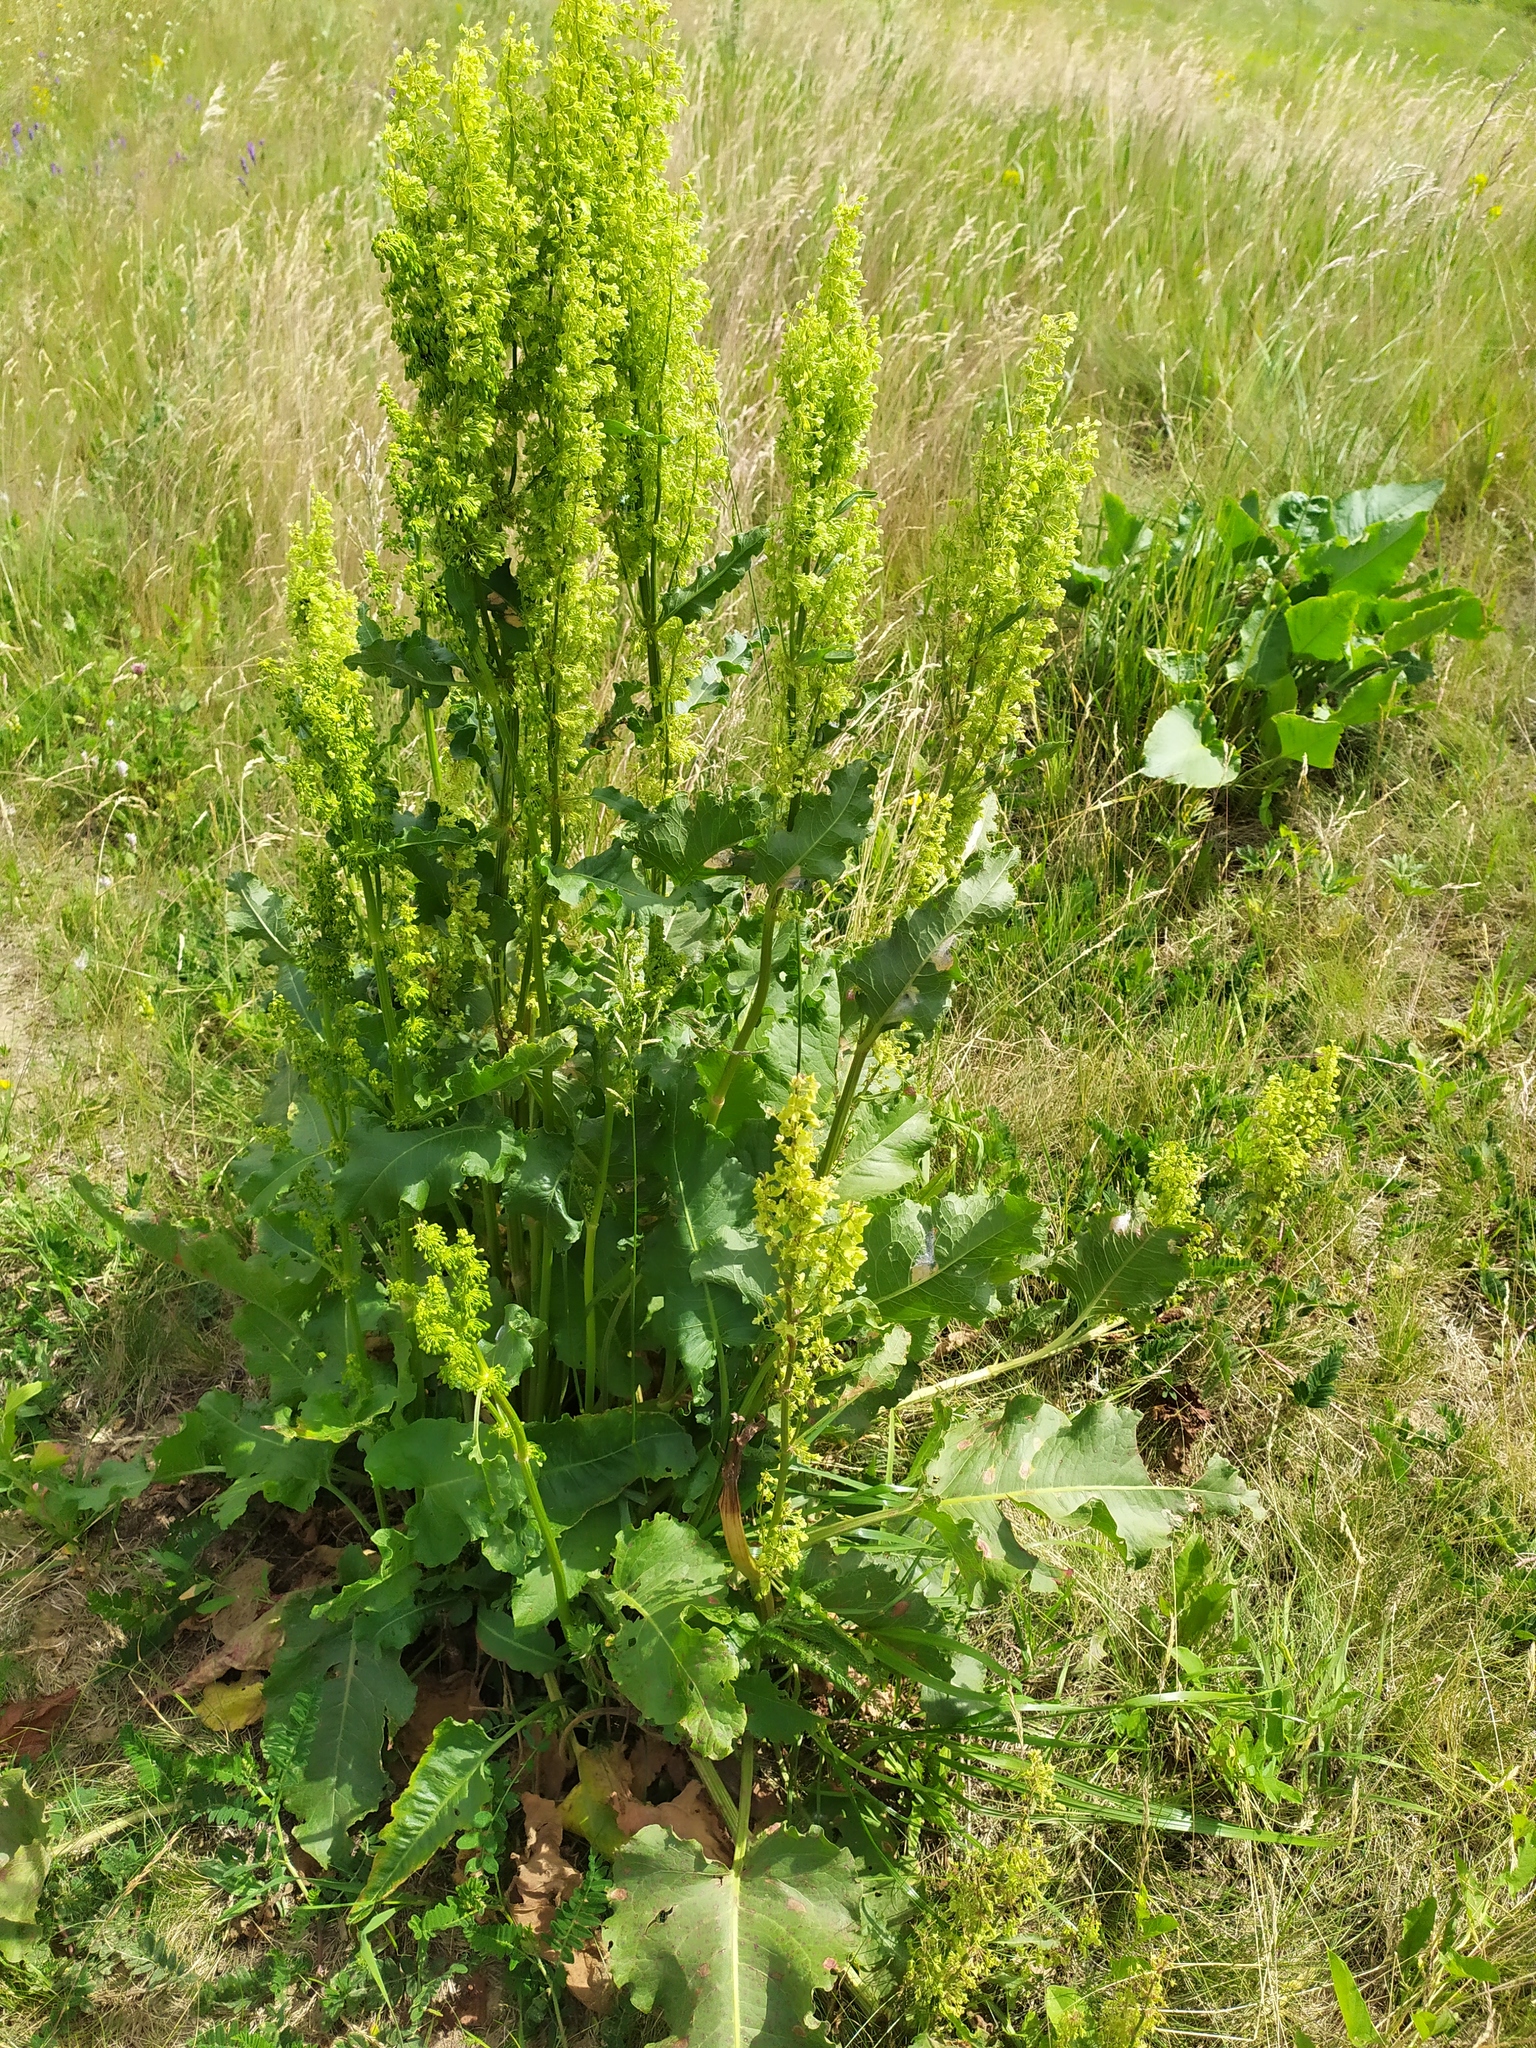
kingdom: Plantae
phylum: Tracheophyta
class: Magnoliopsida
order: Caryophyllales
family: Polygonaceae
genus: Rumex
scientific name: Rumex confertus
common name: Russian dock
